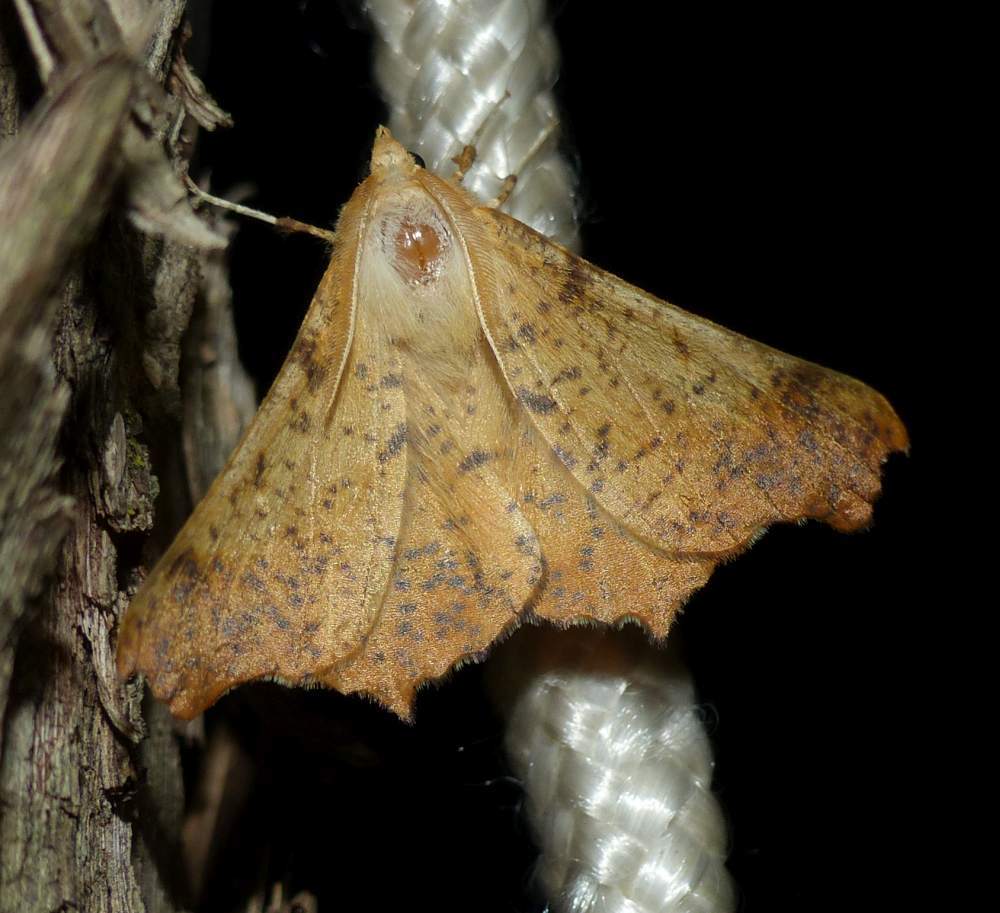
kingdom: Animalia
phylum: Arthropoda
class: Insecta
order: Lepidoptera
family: Geometridae
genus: Ennomos
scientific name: Ennomos magnaria
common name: Maple spanworm
